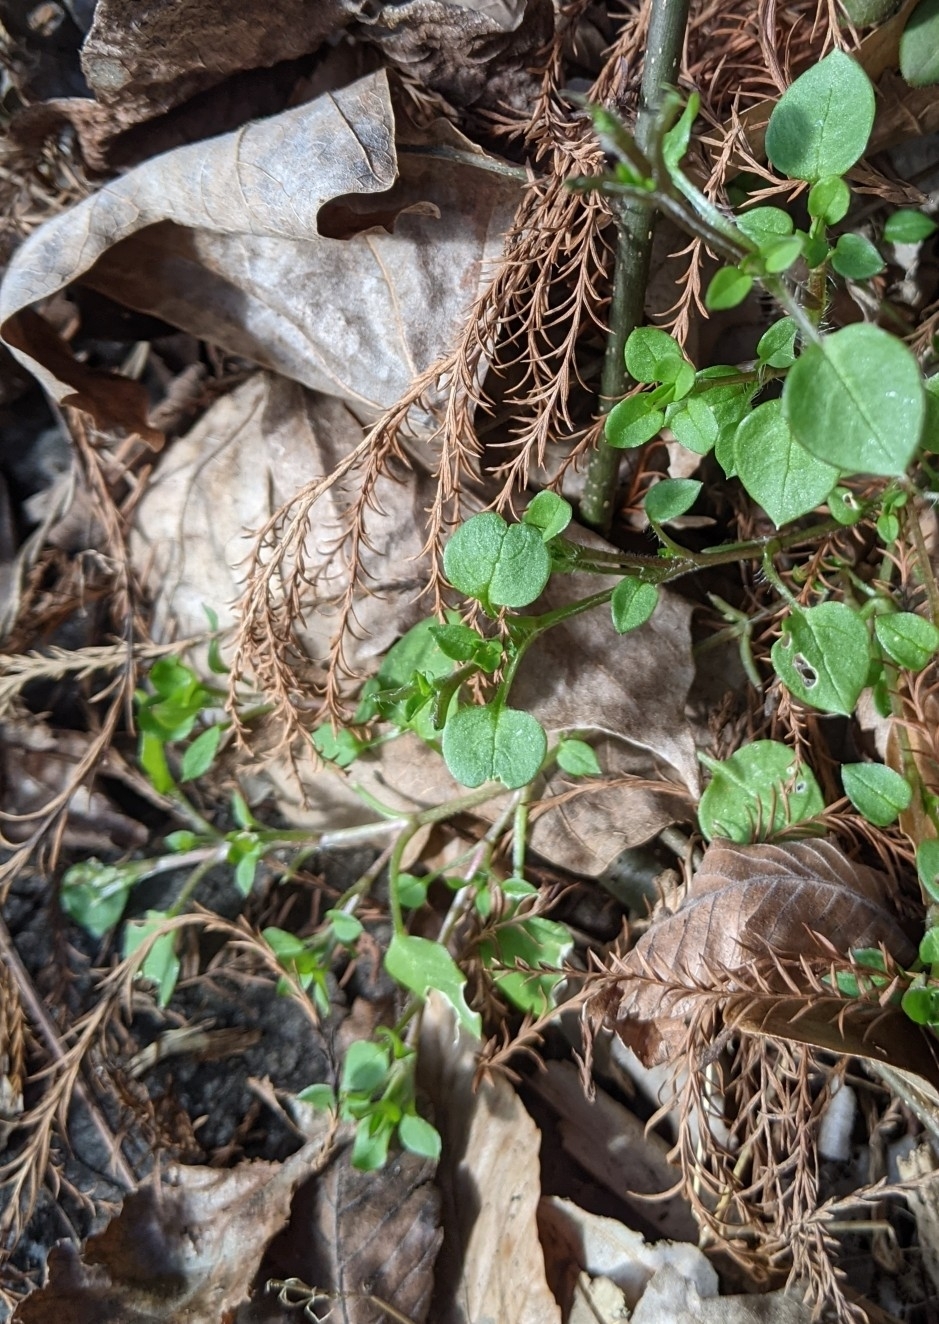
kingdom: Plantae
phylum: Tracheophyta
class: Magnoliopsida
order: Caryophyllales
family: Caryophyllaceae
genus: Stellaria
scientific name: Stellaria media
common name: Common chickweed
